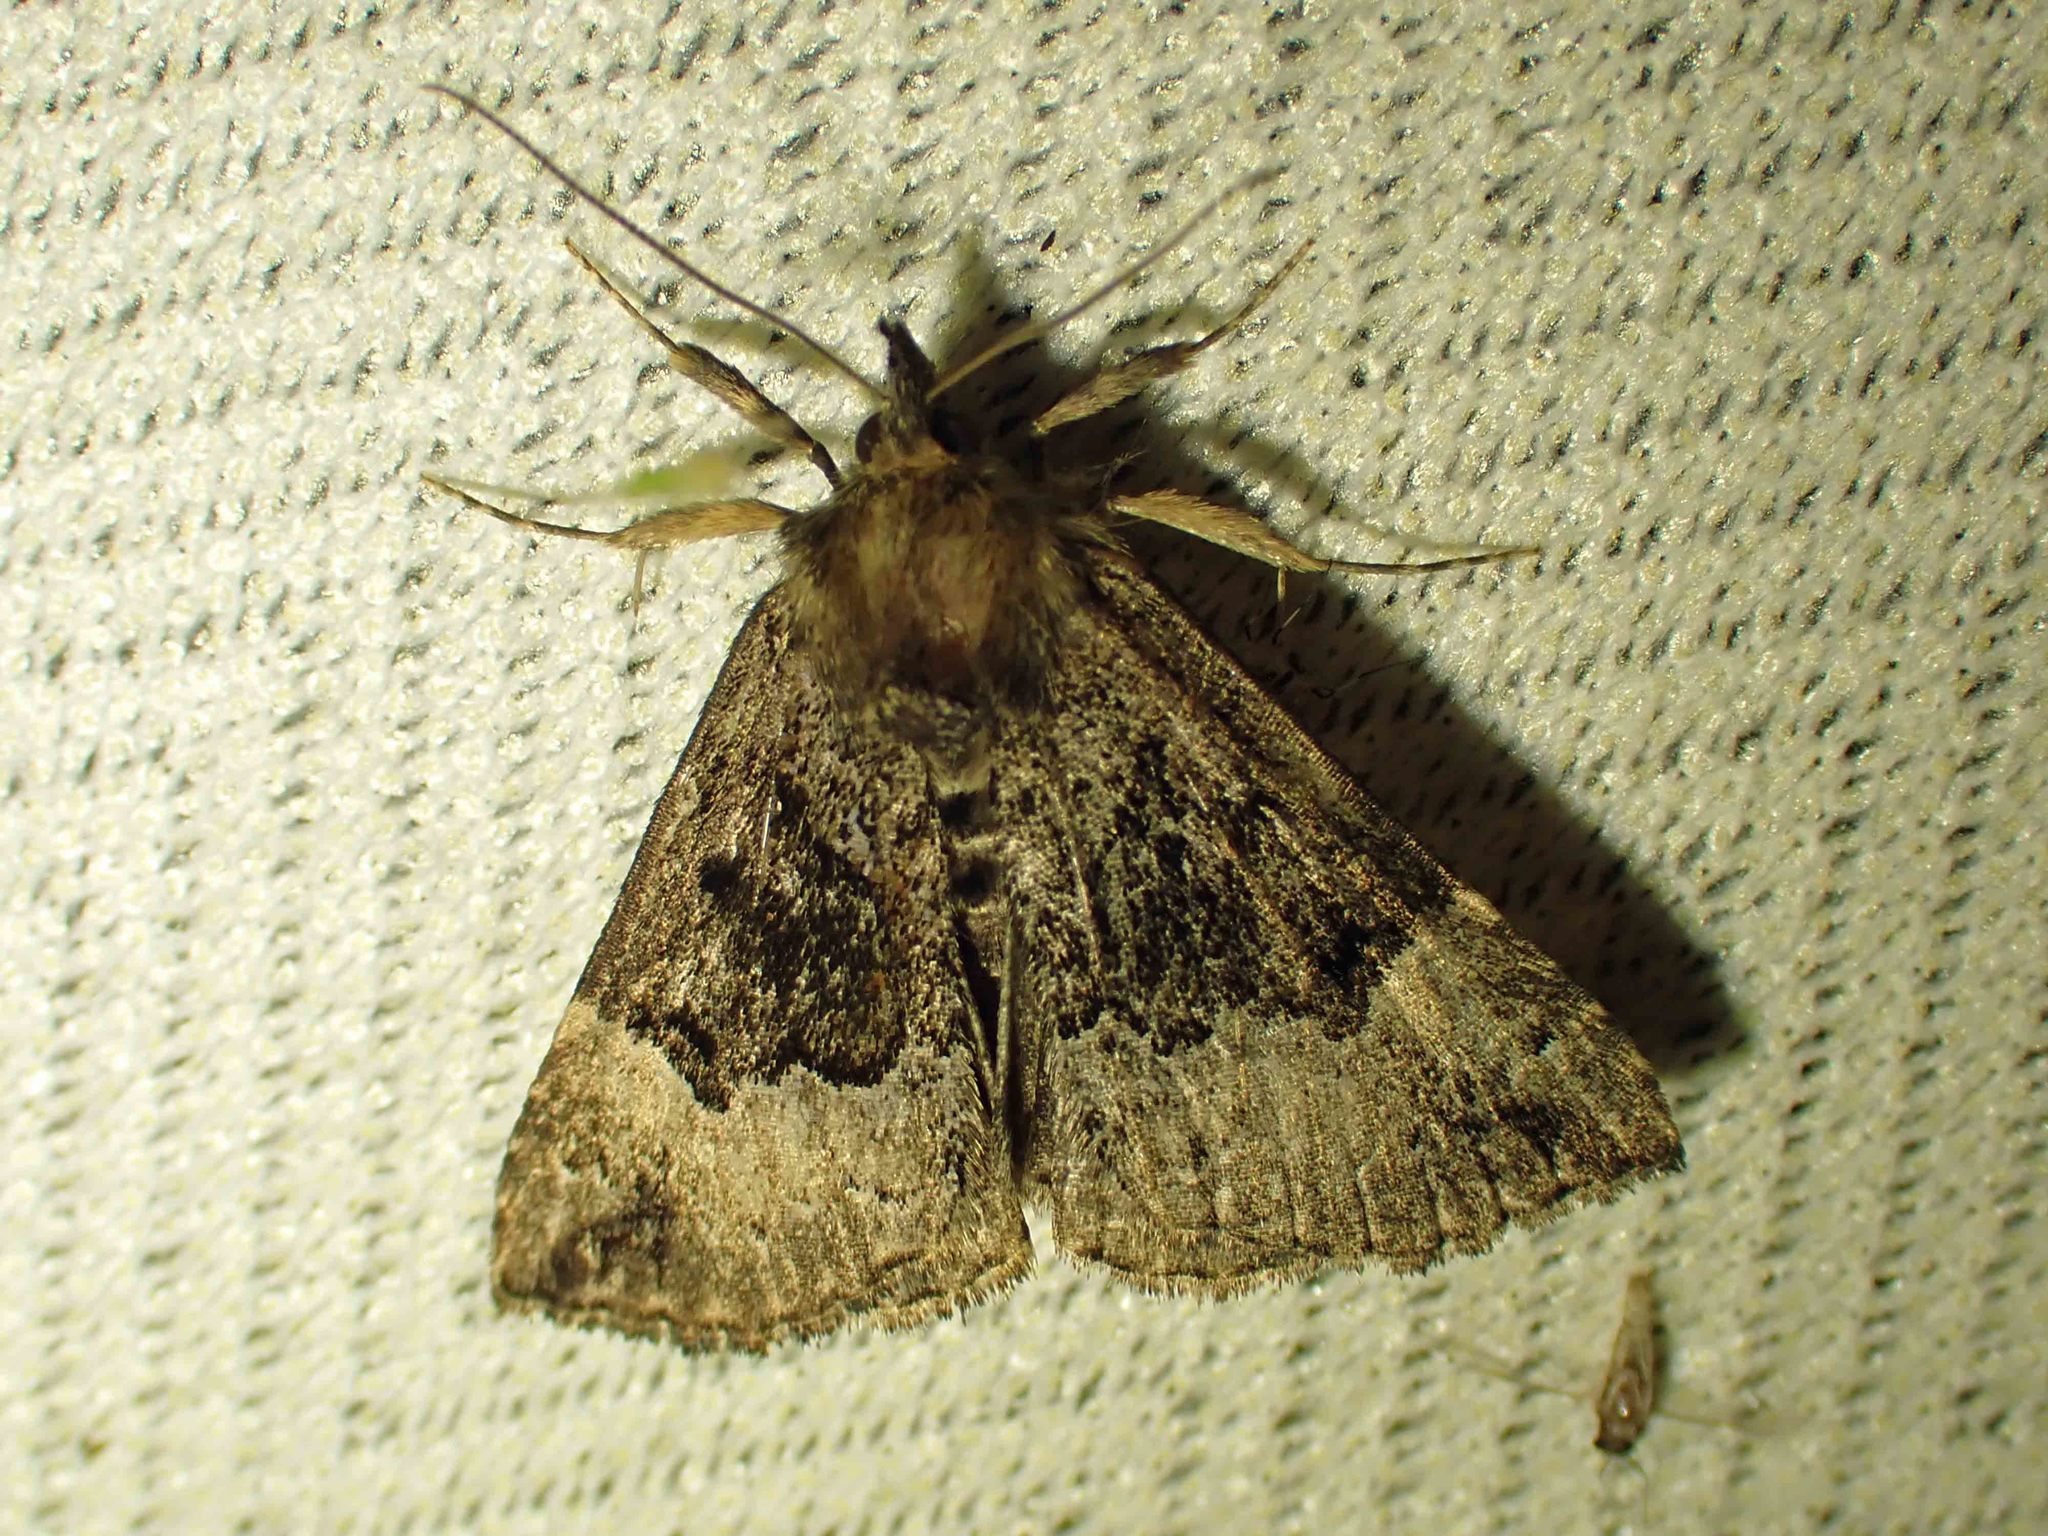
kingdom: Animalia
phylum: Arthropoda
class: Insecta
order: Lepidoptera
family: Erebidae
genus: Hypena
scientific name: Hypena palparia
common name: Mottled bomolocha moth
